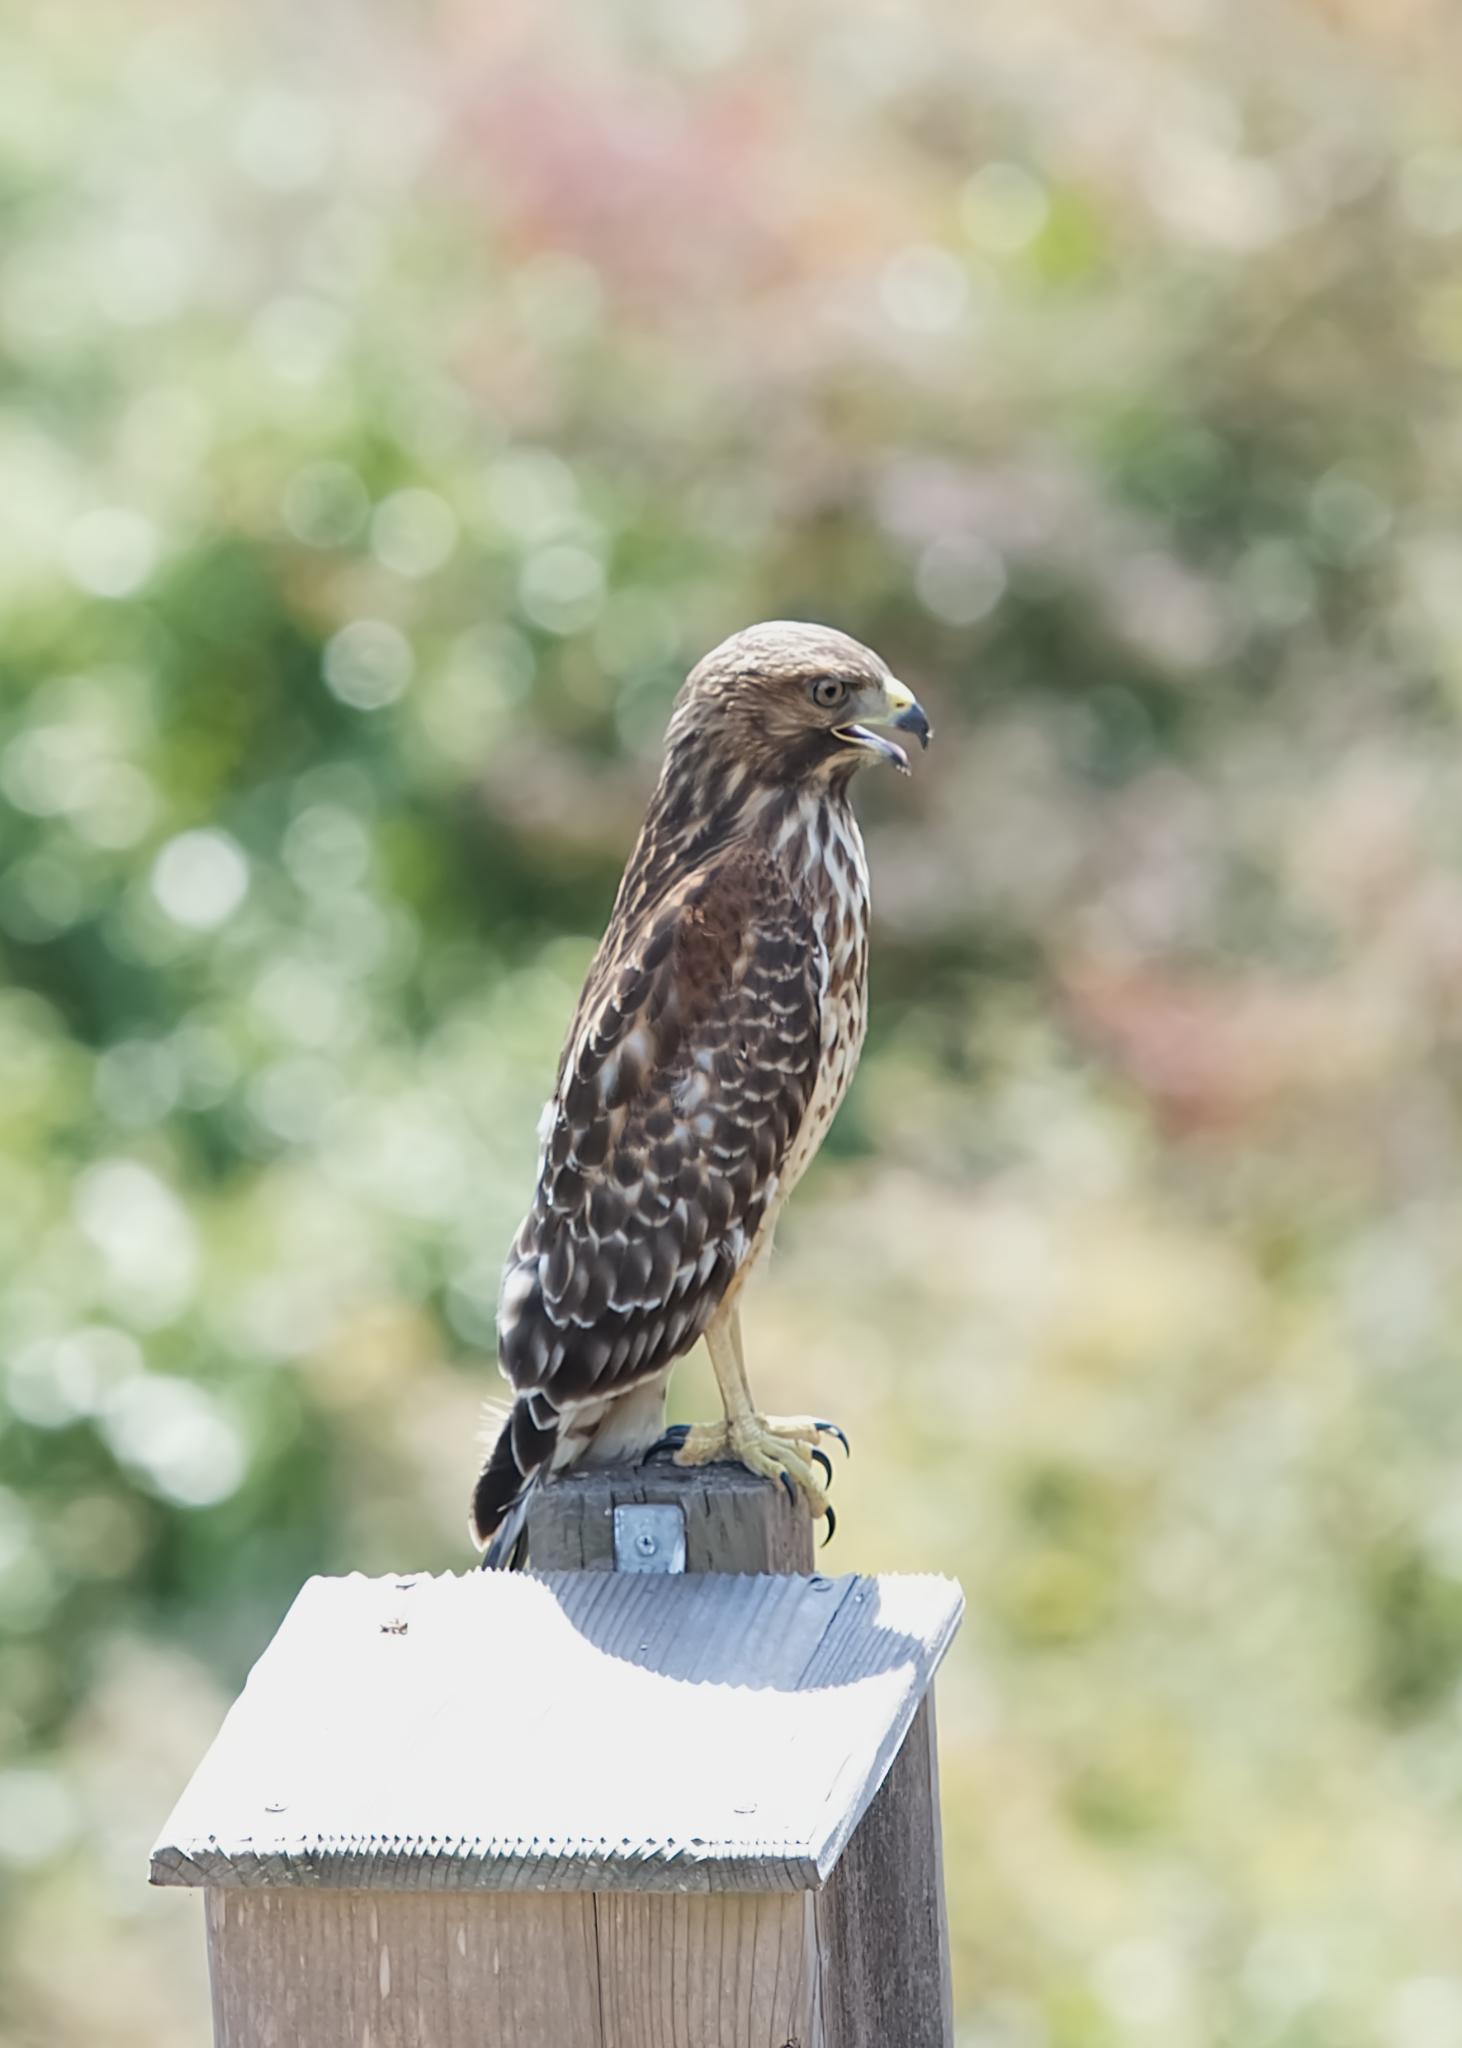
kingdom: Animalia
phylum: Chordata
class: Aves
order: Accipitriformes
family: Accipitridae
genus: Buteo
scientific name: Buteo lineatus
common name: Red-shouldered hawk
